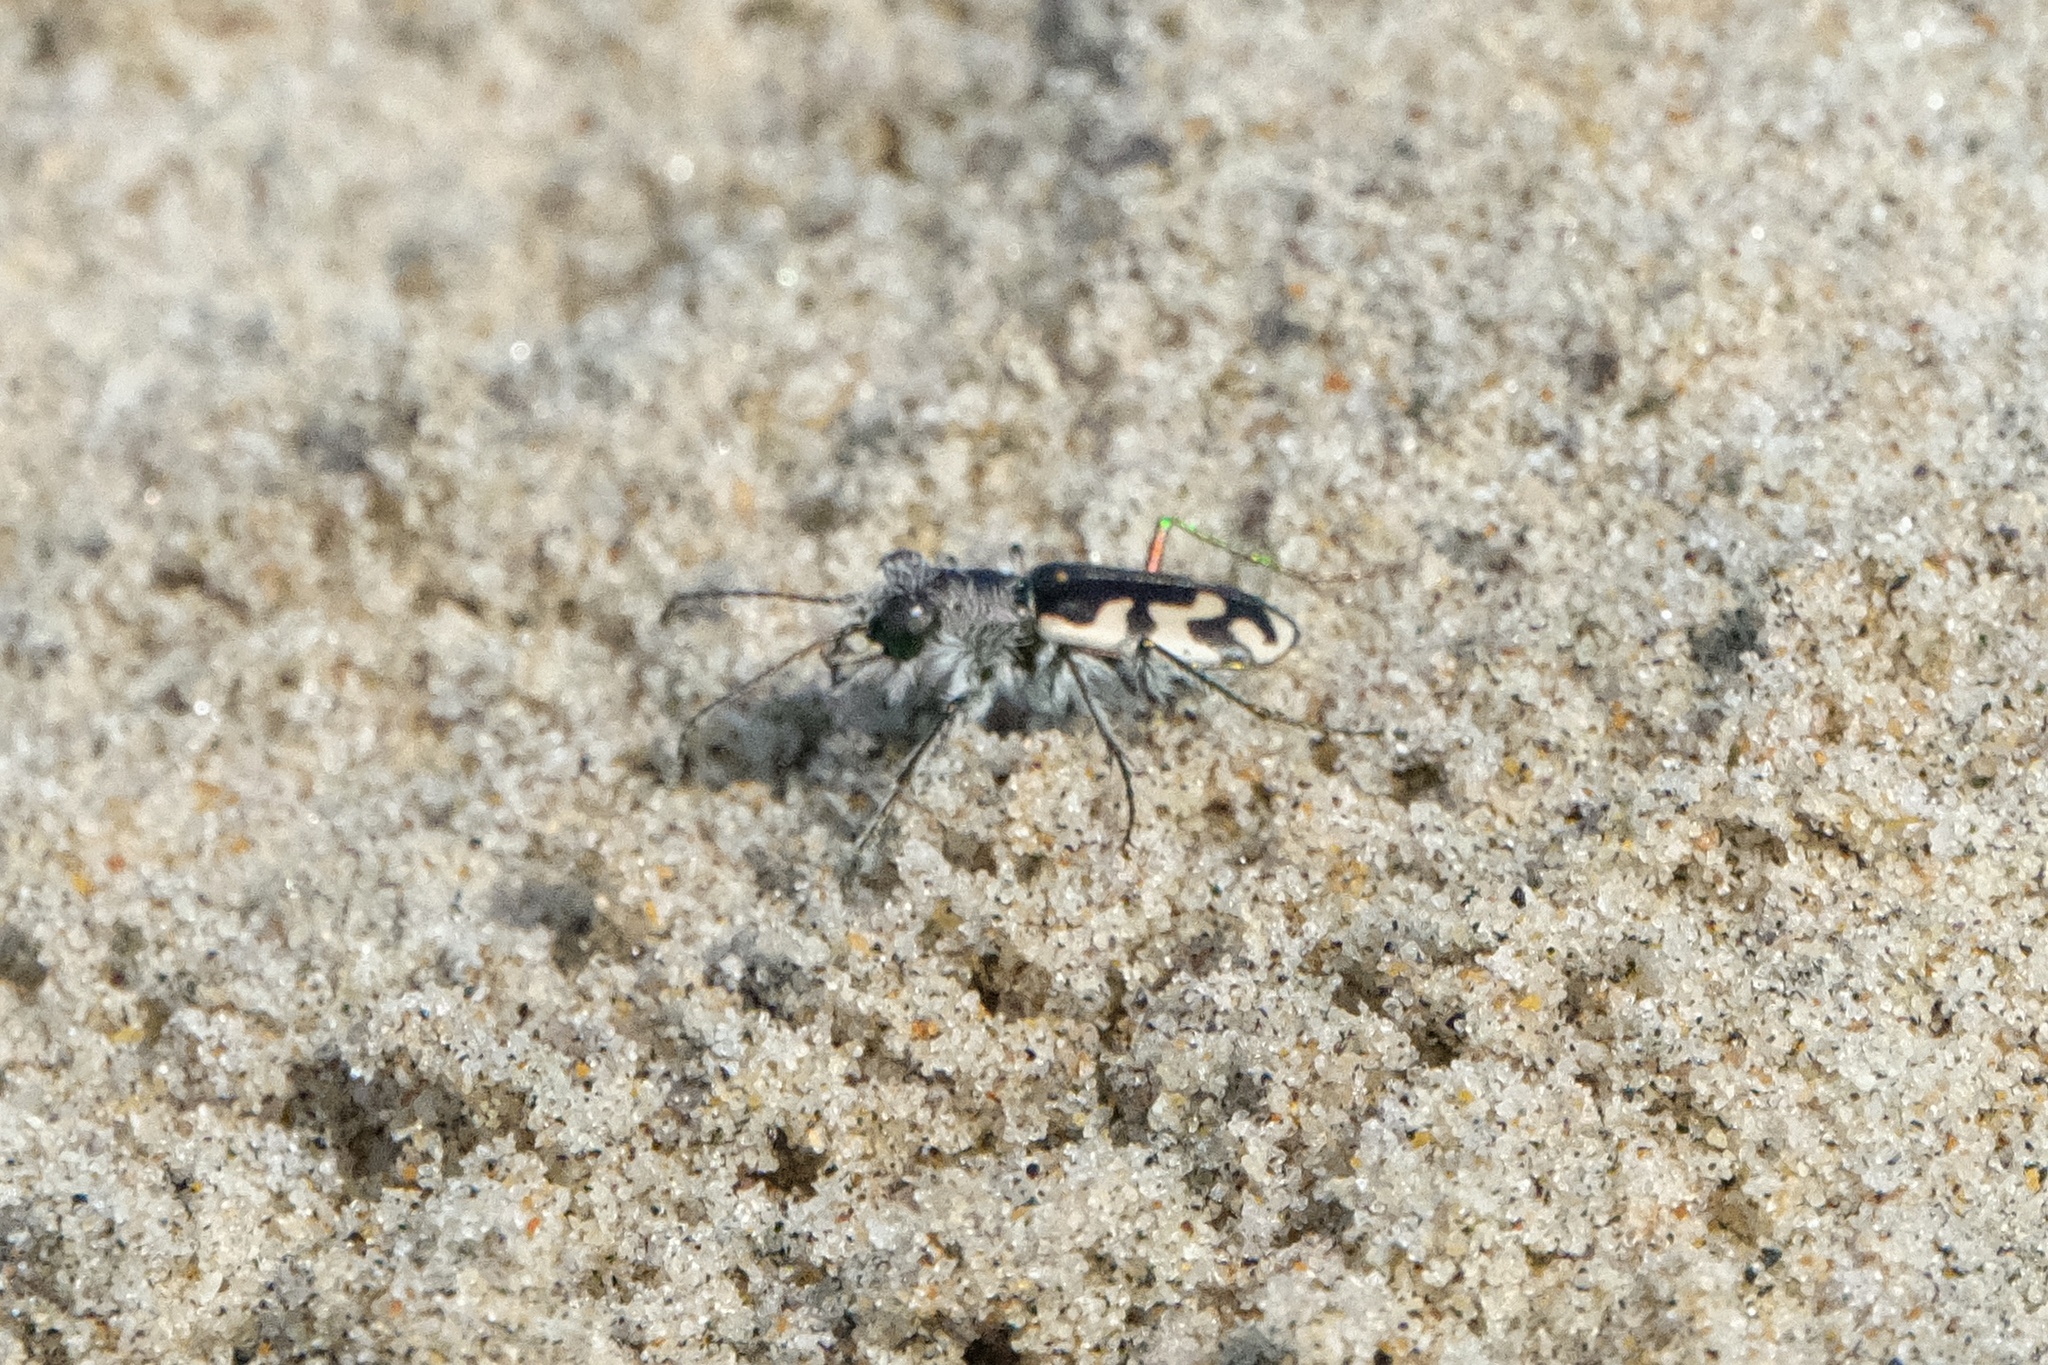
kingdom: Animalia
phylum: Arthropoda
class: Insecta
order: Coleoptera
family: Carabidae
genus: Cicindela
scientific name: Cicindela latesignata
